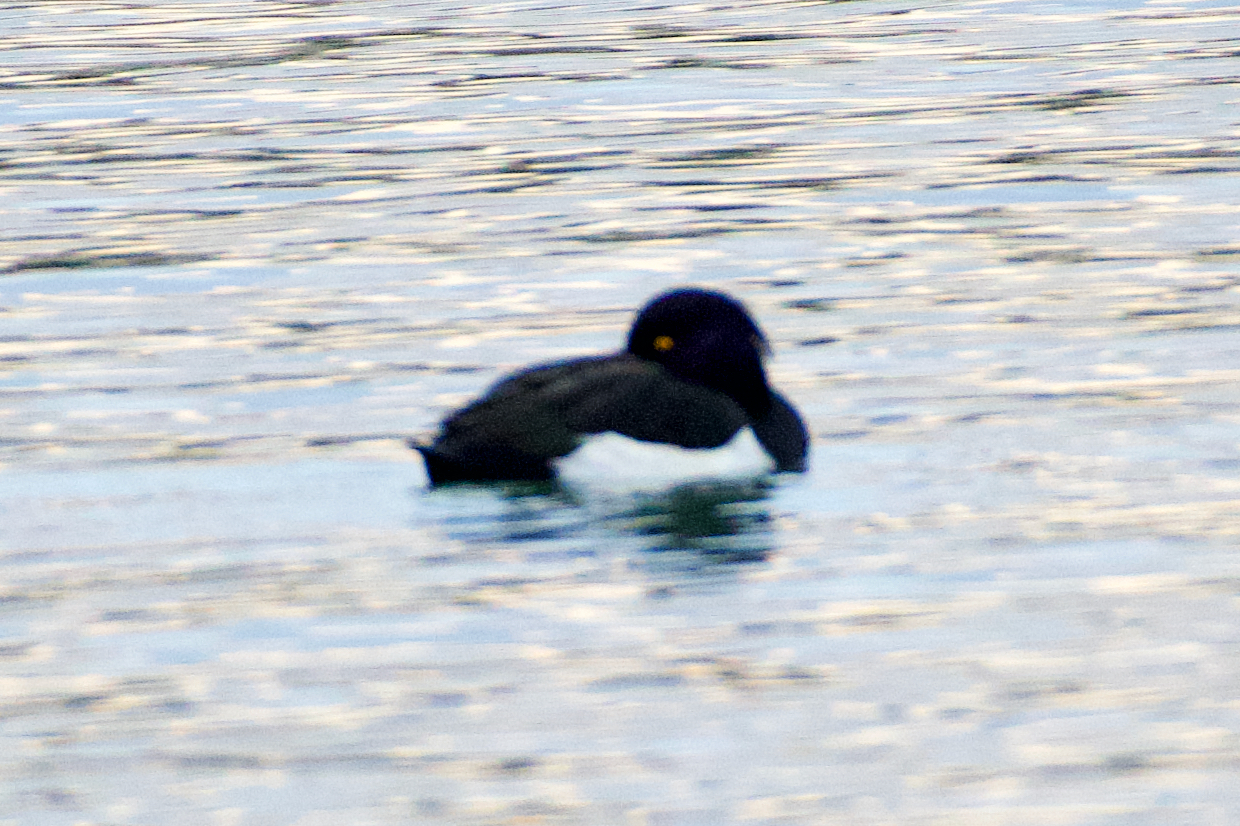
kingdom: Animalia
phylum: Chordata
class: Aves
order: Anseriformes
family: Anatidae
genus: Aythya
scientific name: Aythya fuligula
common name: Tufted duck
